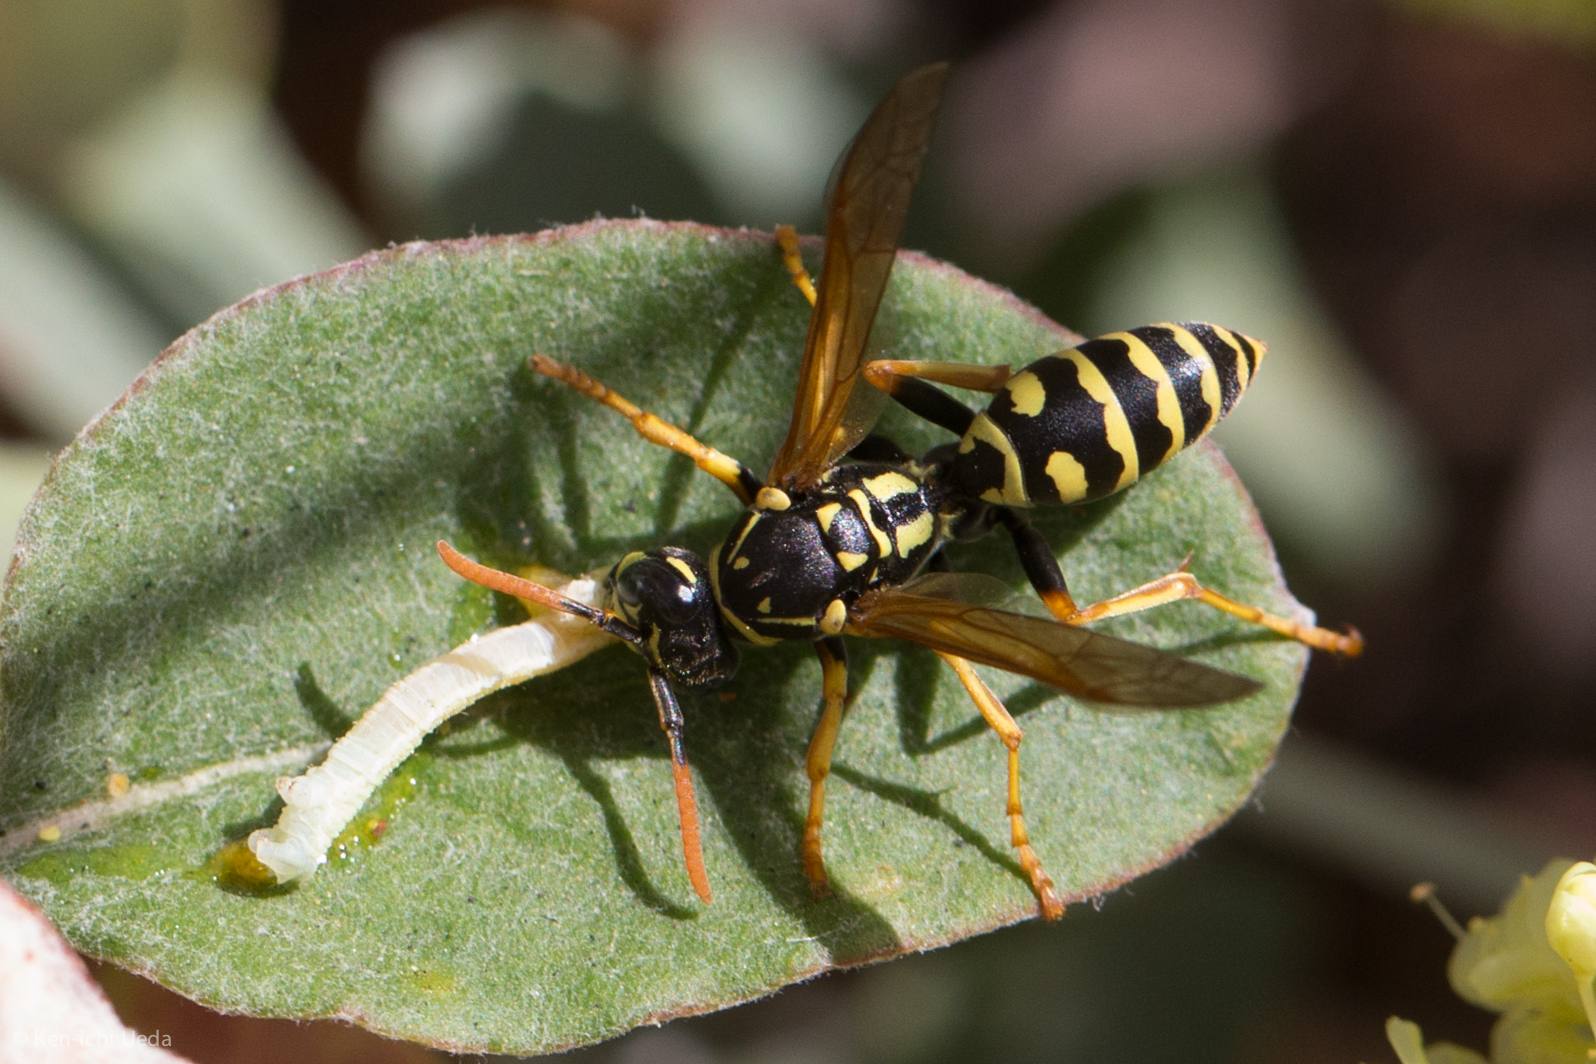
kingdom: Animalia
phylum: Arthropoda
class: Insecta
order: Hymenoptera
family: Eumenidae
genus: Polistes
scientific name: Polistes dominula
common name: Paper wasp
